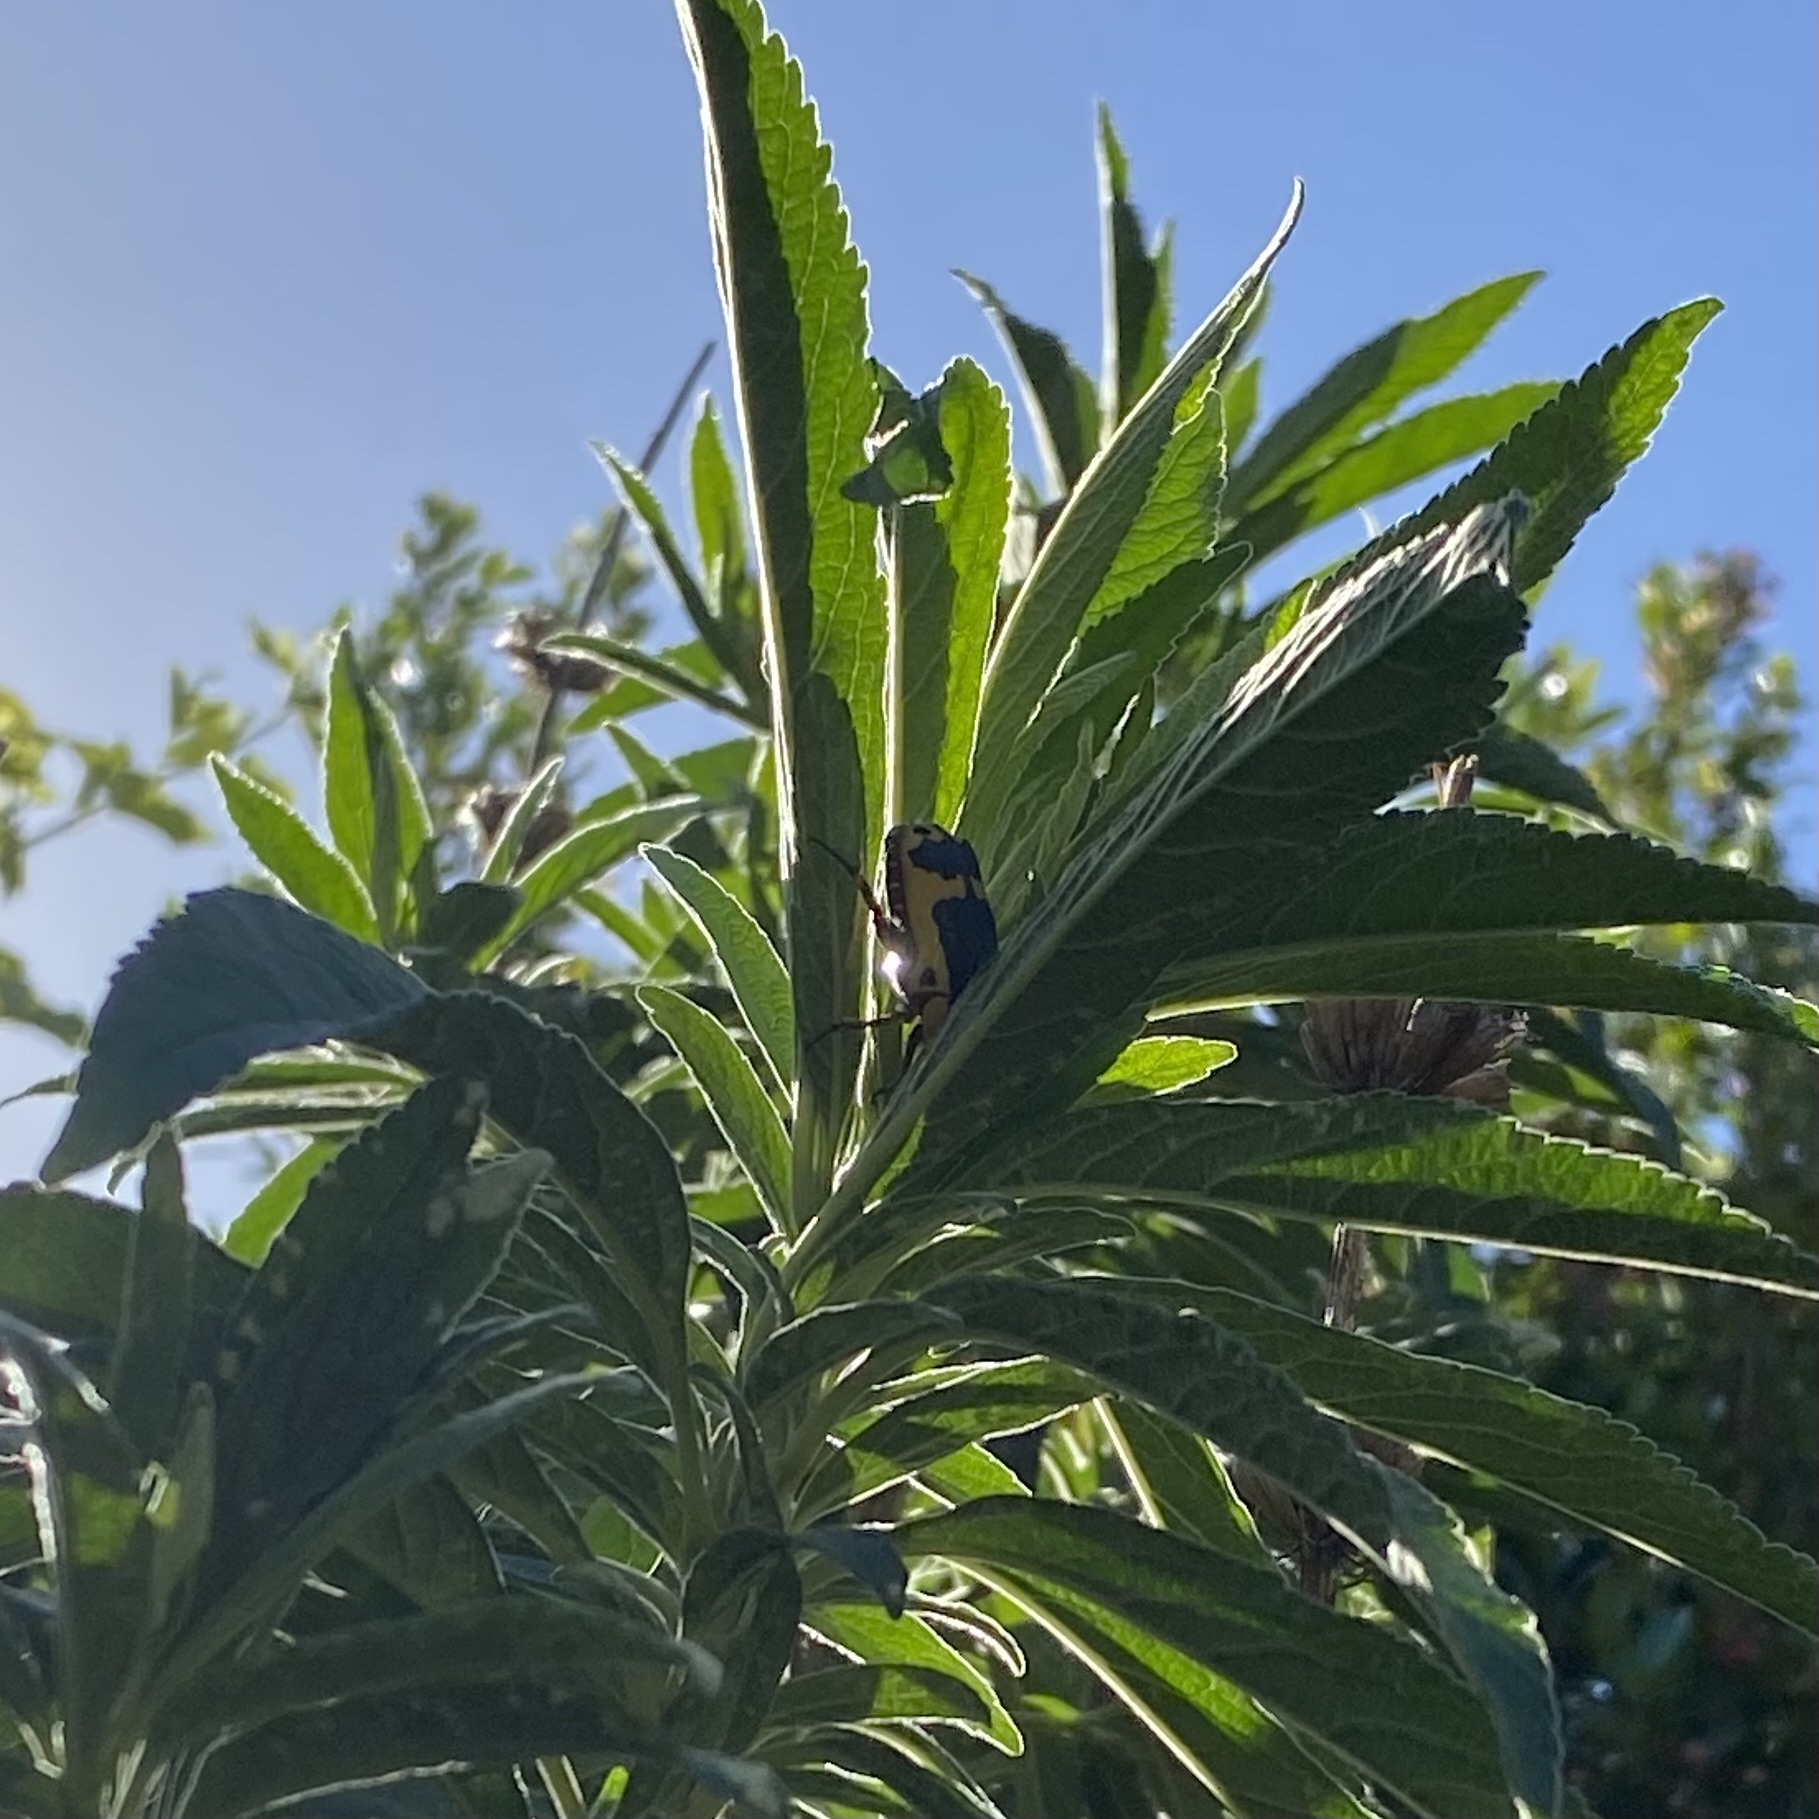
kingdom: Animalia
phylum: Arthropoda
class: Insecta
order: Coleoptera
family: Scarabaeidae
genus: Pachnoda
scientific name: Pachnoda sinuata
